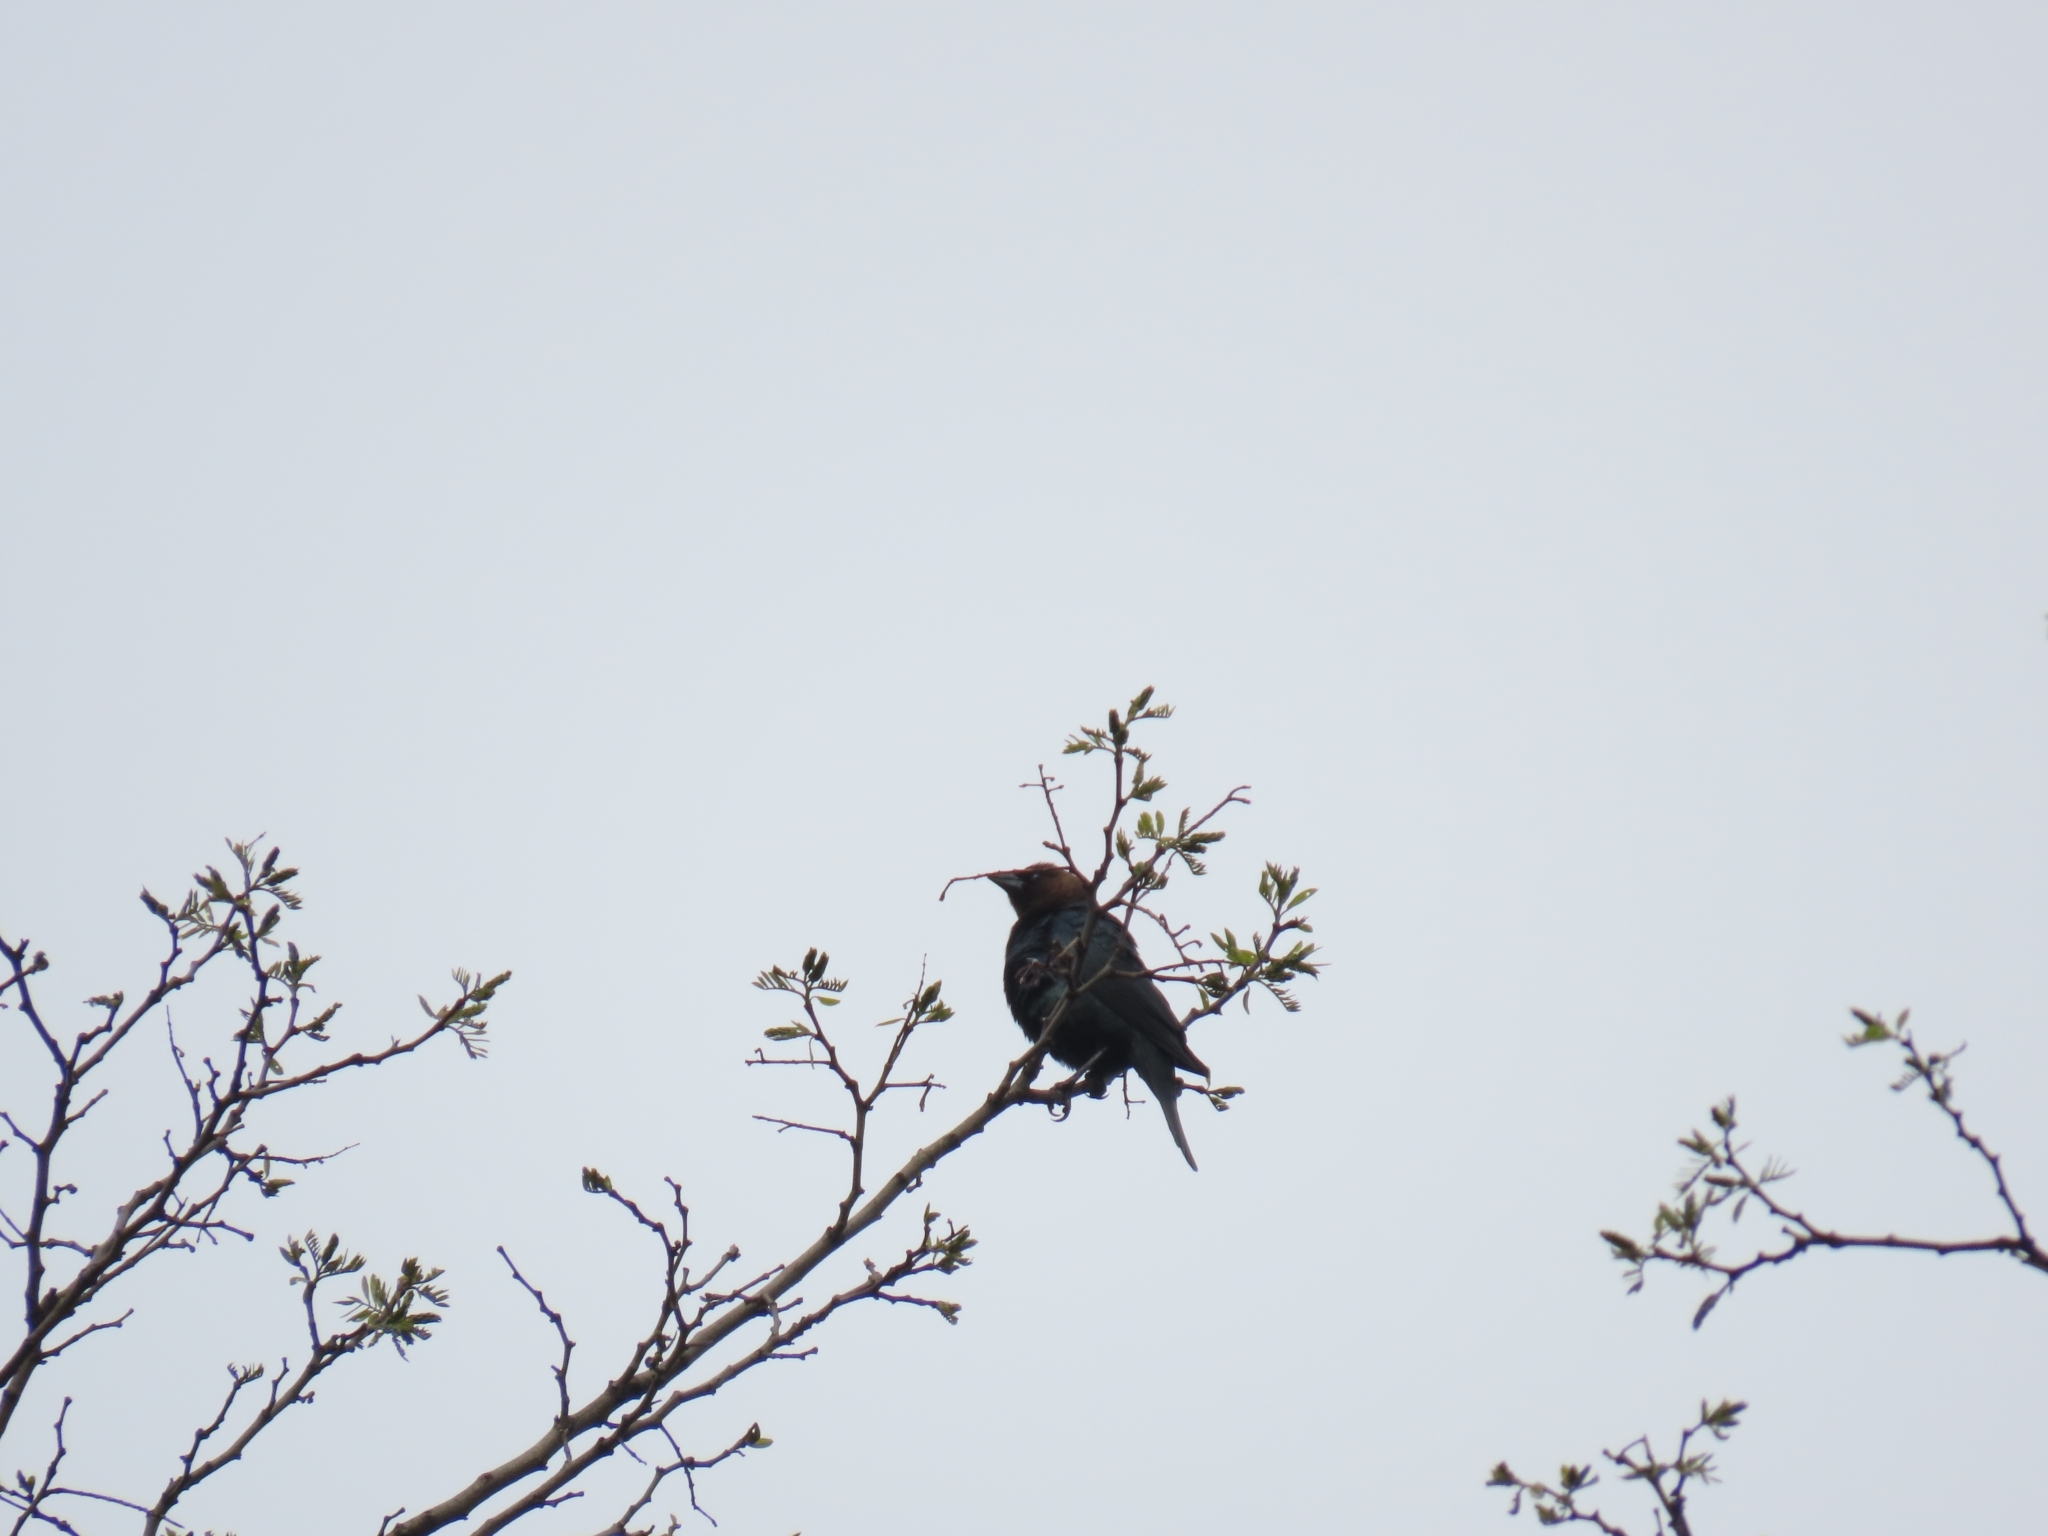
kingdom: Animalia
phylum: Chordata
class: Aves
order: Passeriformes
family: Icteridae
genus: Molothrus
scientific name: Molothrus ater
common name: Brown-headed cowbird
